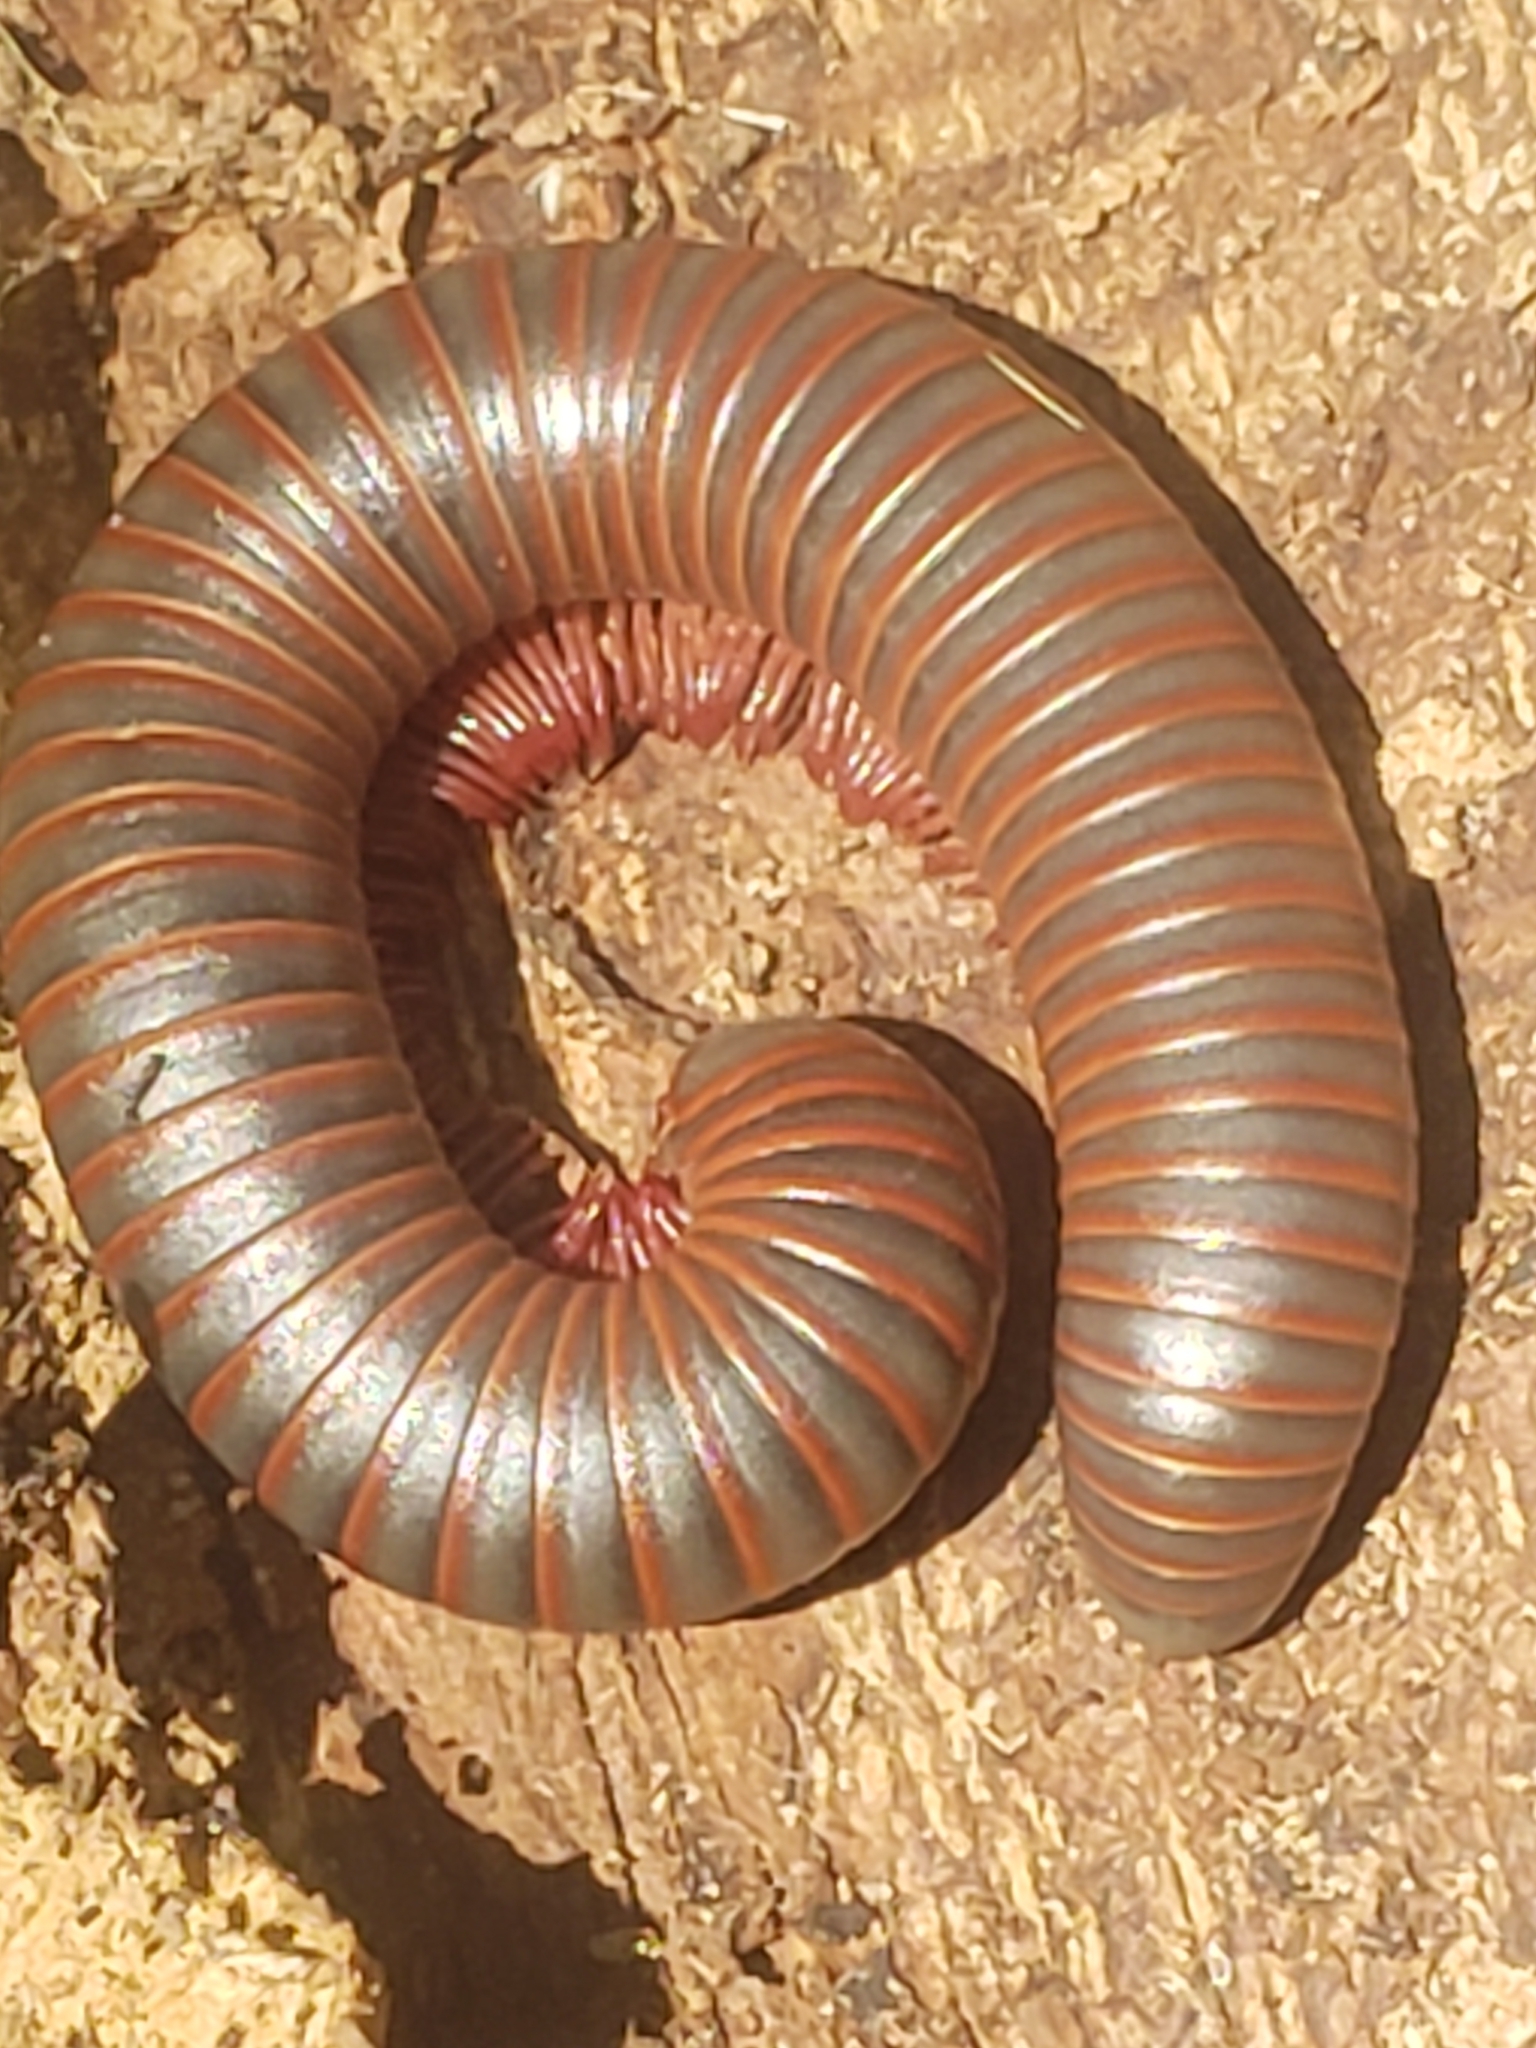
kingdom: Animalia
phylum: Arthropoda
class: Diplopoda
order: Spirobolida
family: Spirobolidae
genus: Narceus
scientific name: Narceus
